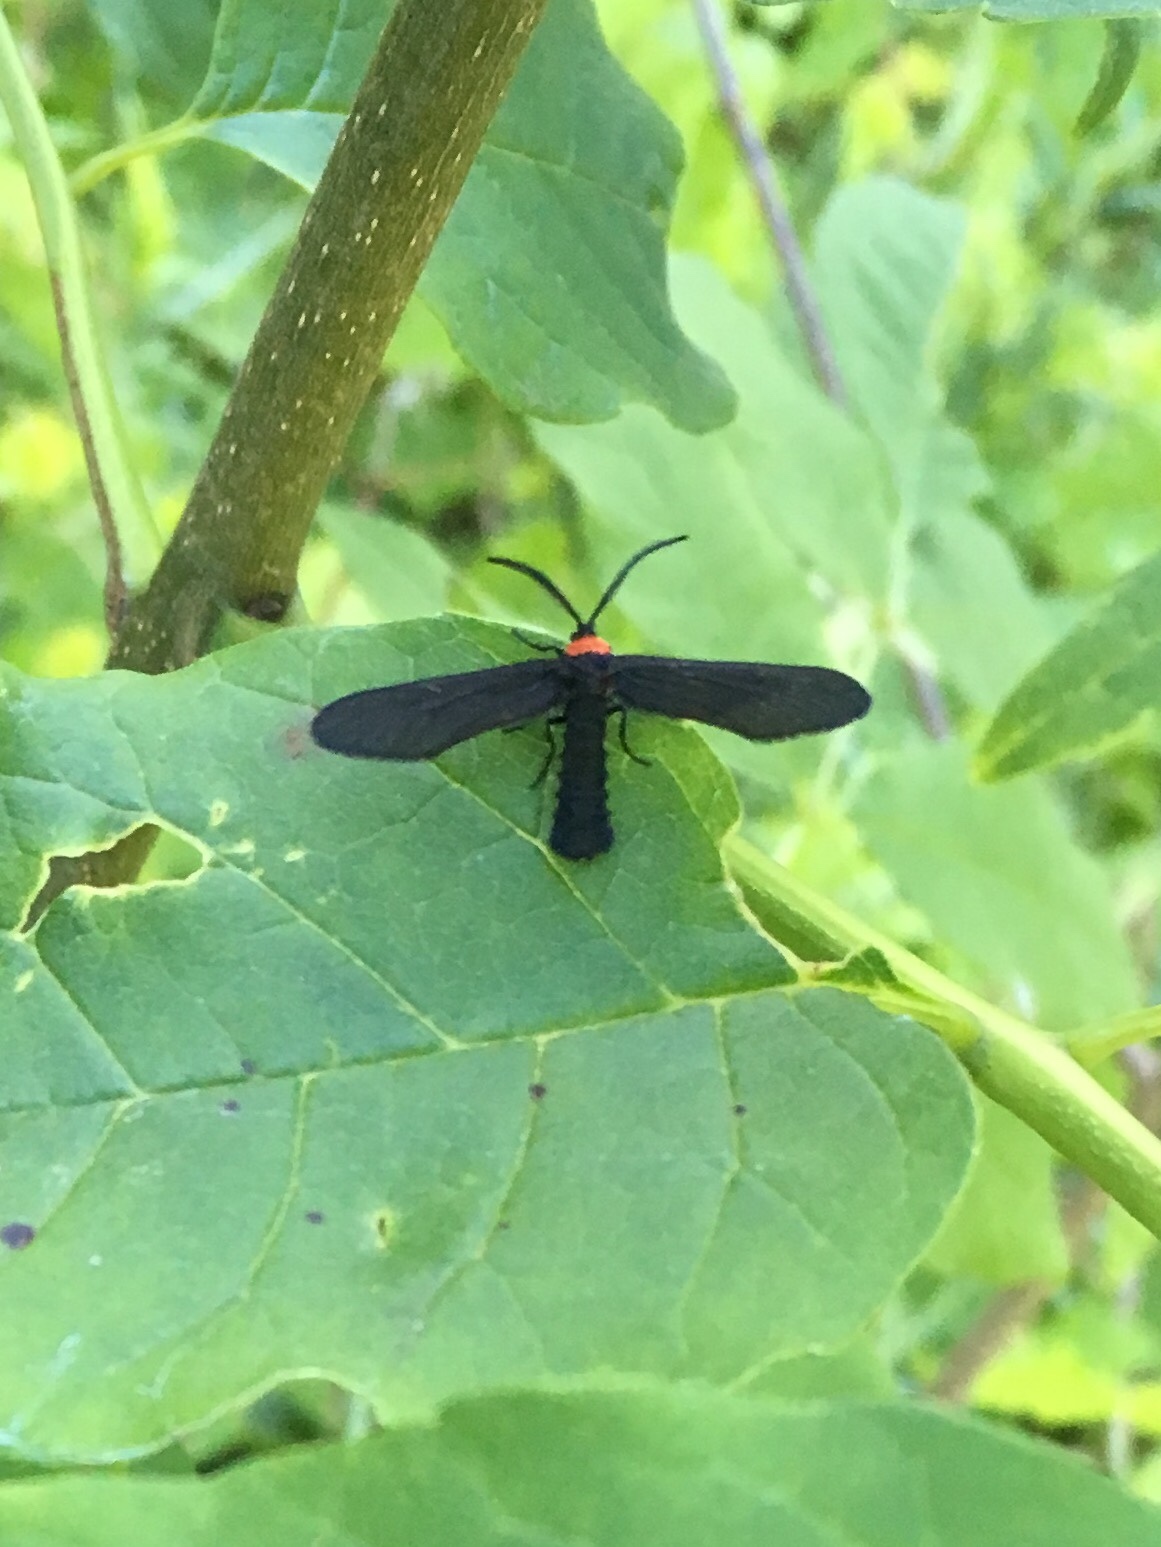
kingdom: Animalia
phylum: Arthropoda
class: Insecta
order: Lepidoptera
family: Zygaenidae
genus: Harrisina
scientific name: Harrisina americana
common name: Grapeleaf skeletonizer moth
